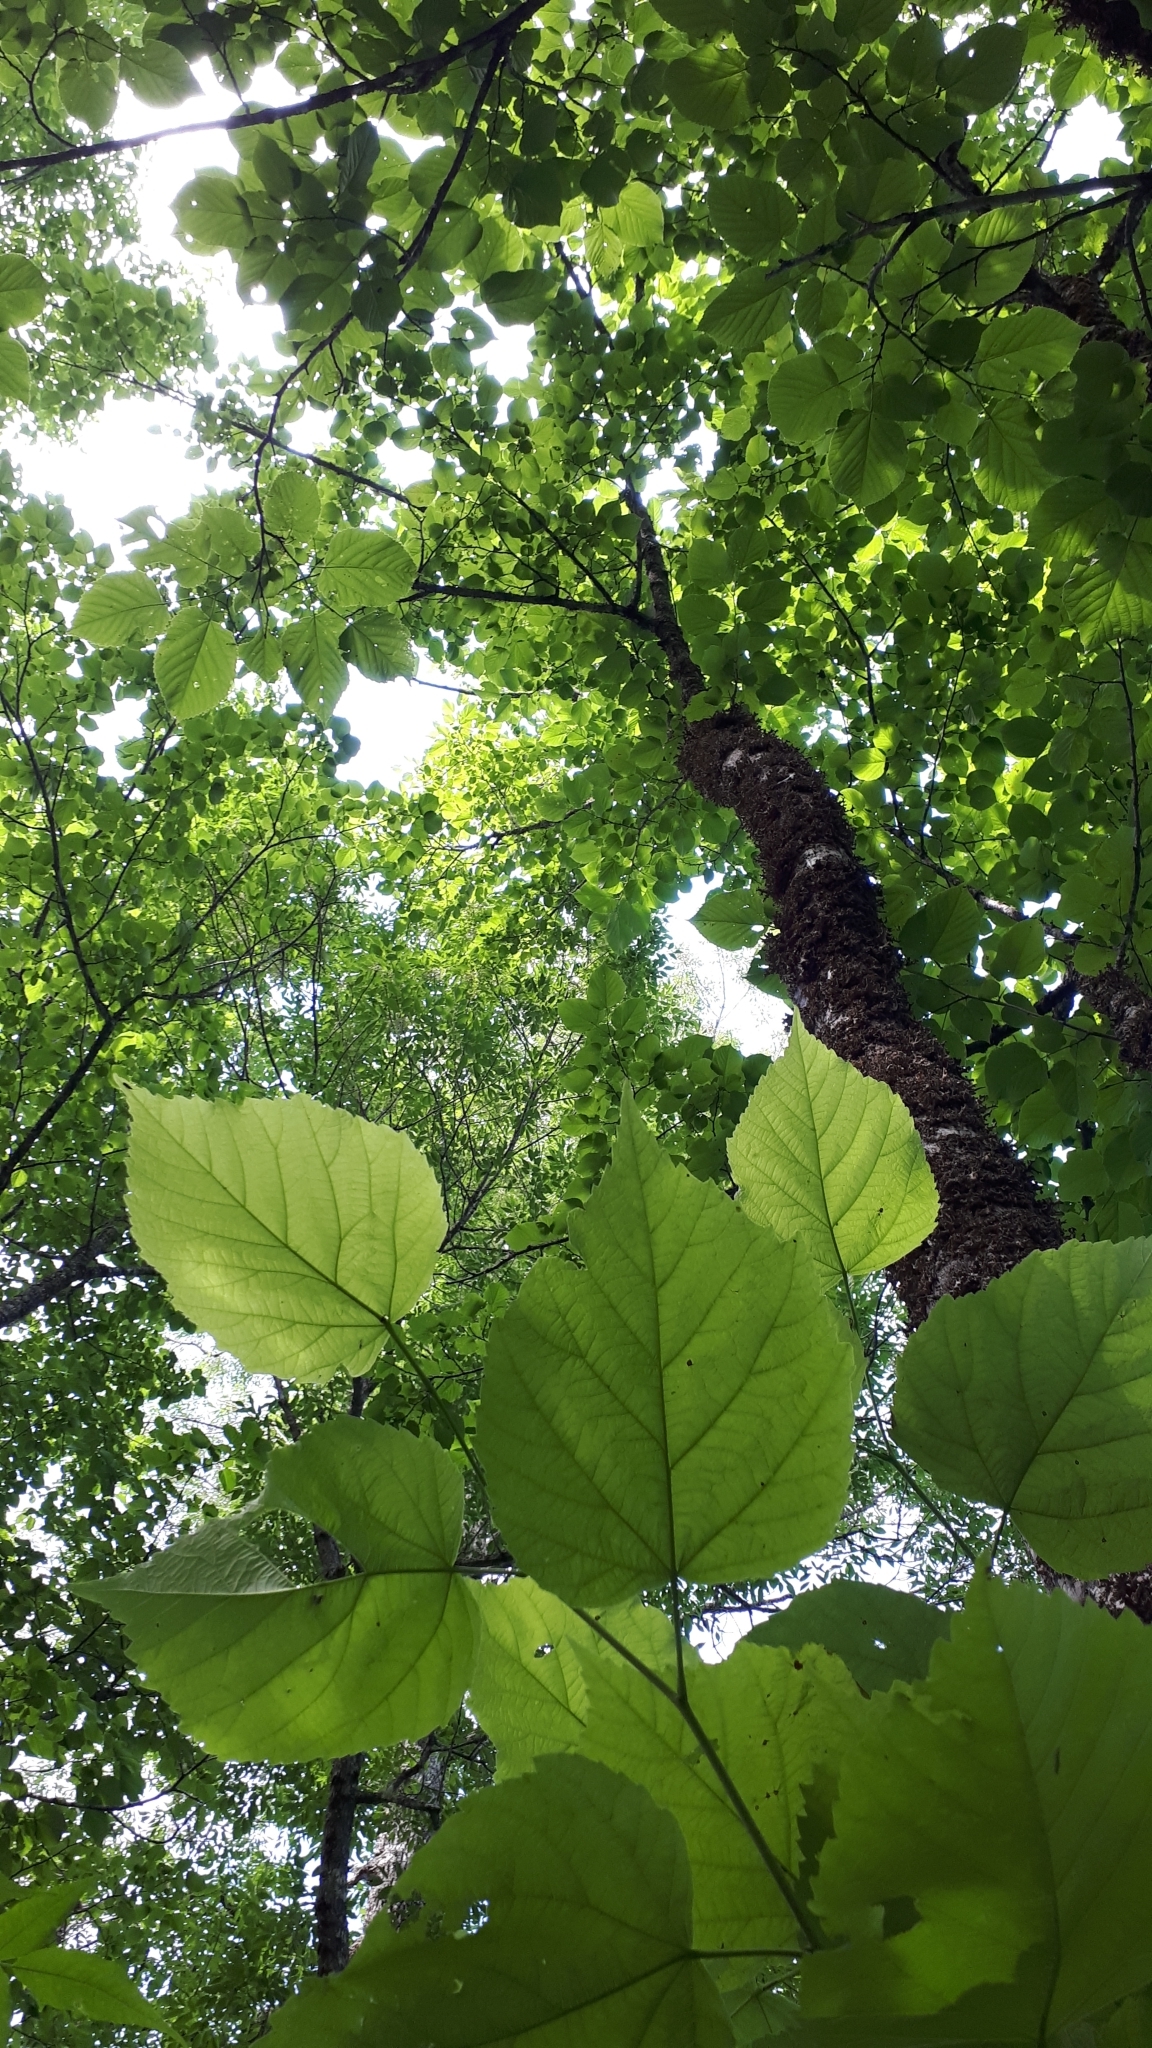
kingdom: Plantae
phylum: Tracheophyta
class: Magnoliopsida
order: Malvales
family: Malvaceae
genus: Tilia
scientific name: Tilia americana
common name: Basswood
